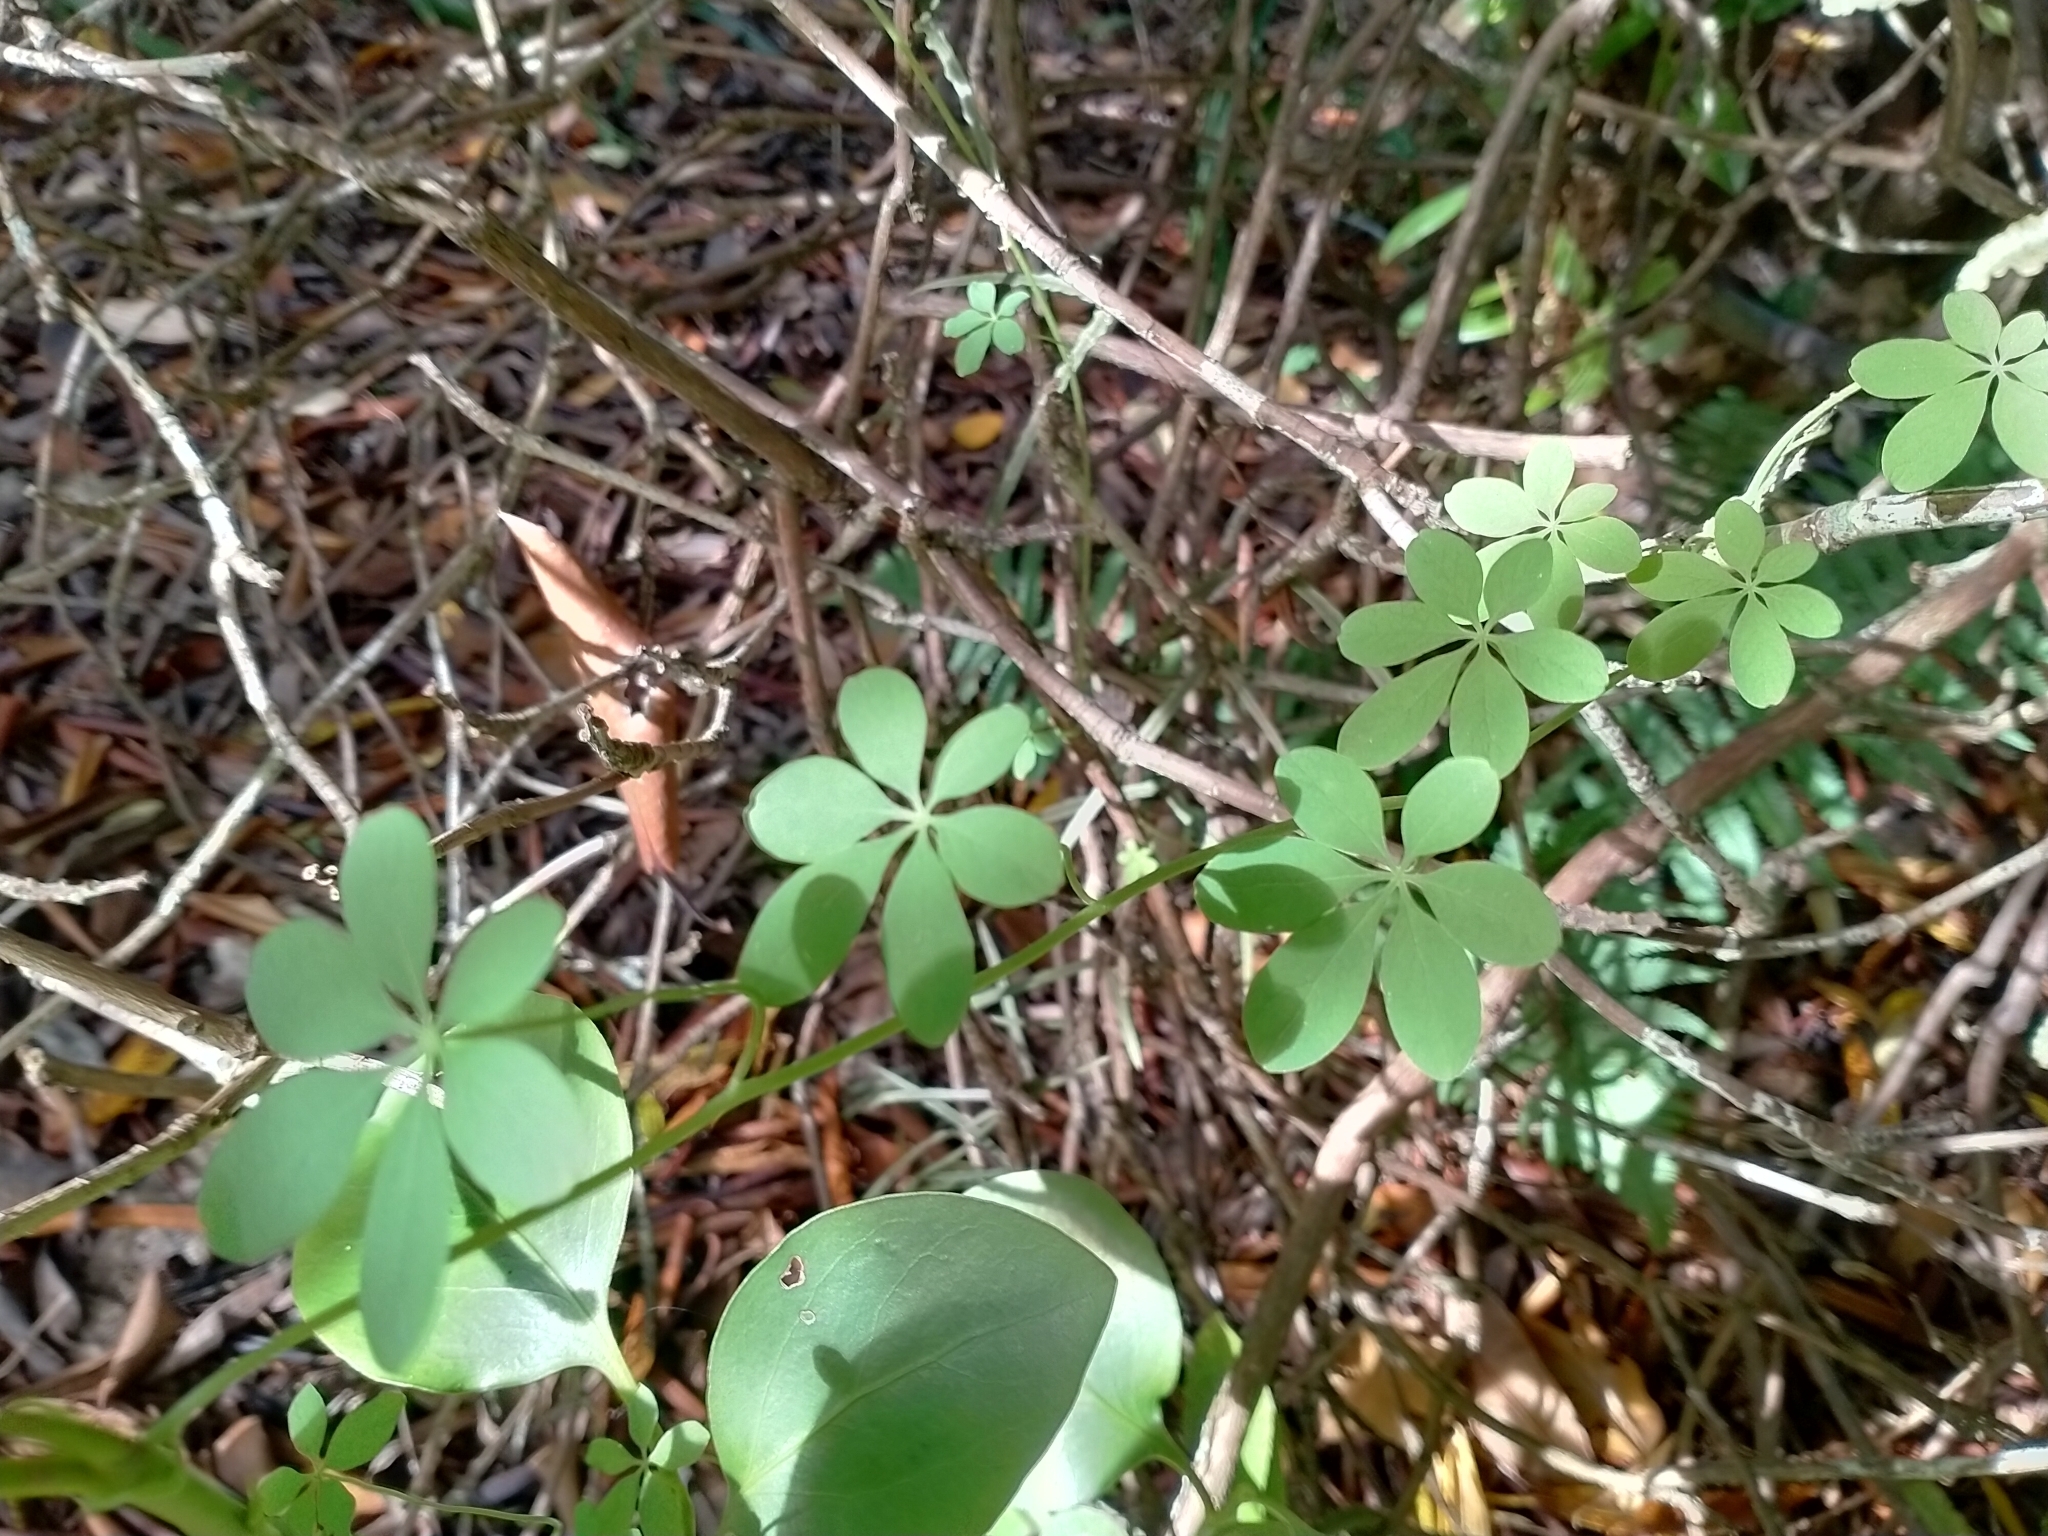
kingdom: Plantae
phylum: Tracheophyta
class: Magnoliopsida
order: Brassicales
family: Tropaeolaceae
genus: Tropaeolum
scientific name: Tropaeolum speciosum
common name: Flame nasturtium
